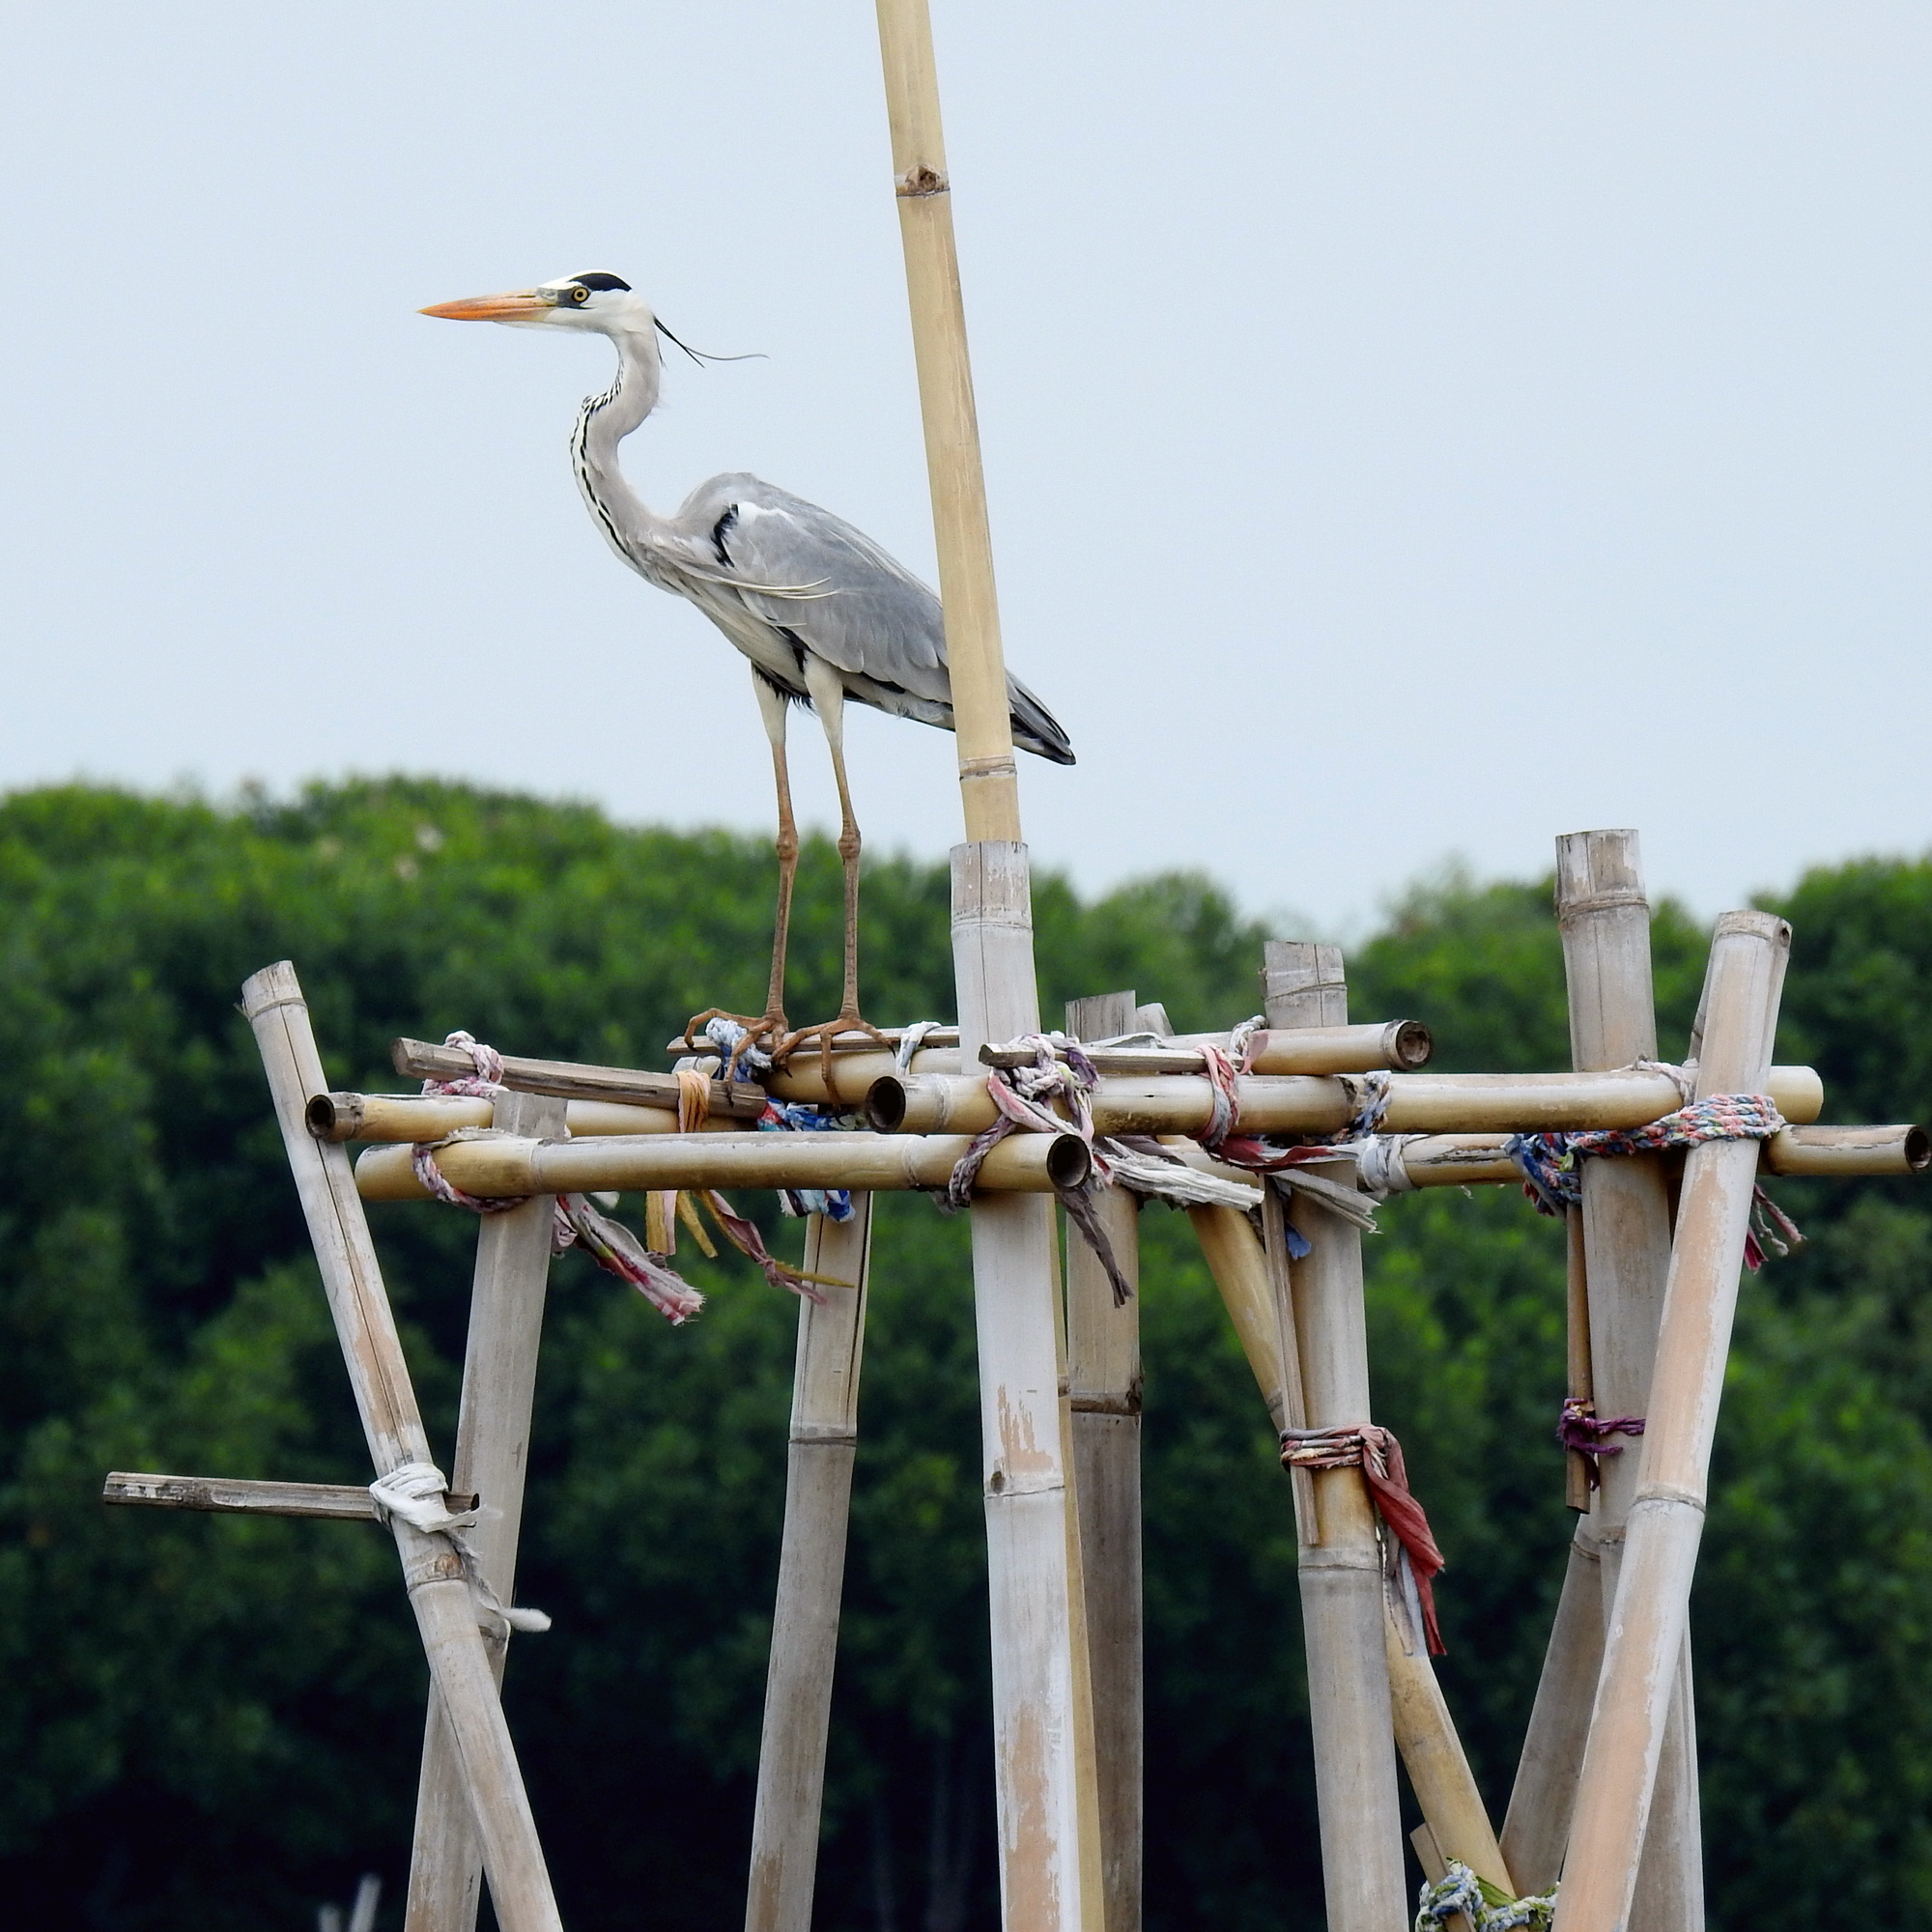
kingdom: Animalia
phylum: Chordata
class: Aves
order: Pelecaniformes
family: Ardeidae
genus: Ardea
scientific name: Ardea cinerea
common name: Grey heron
